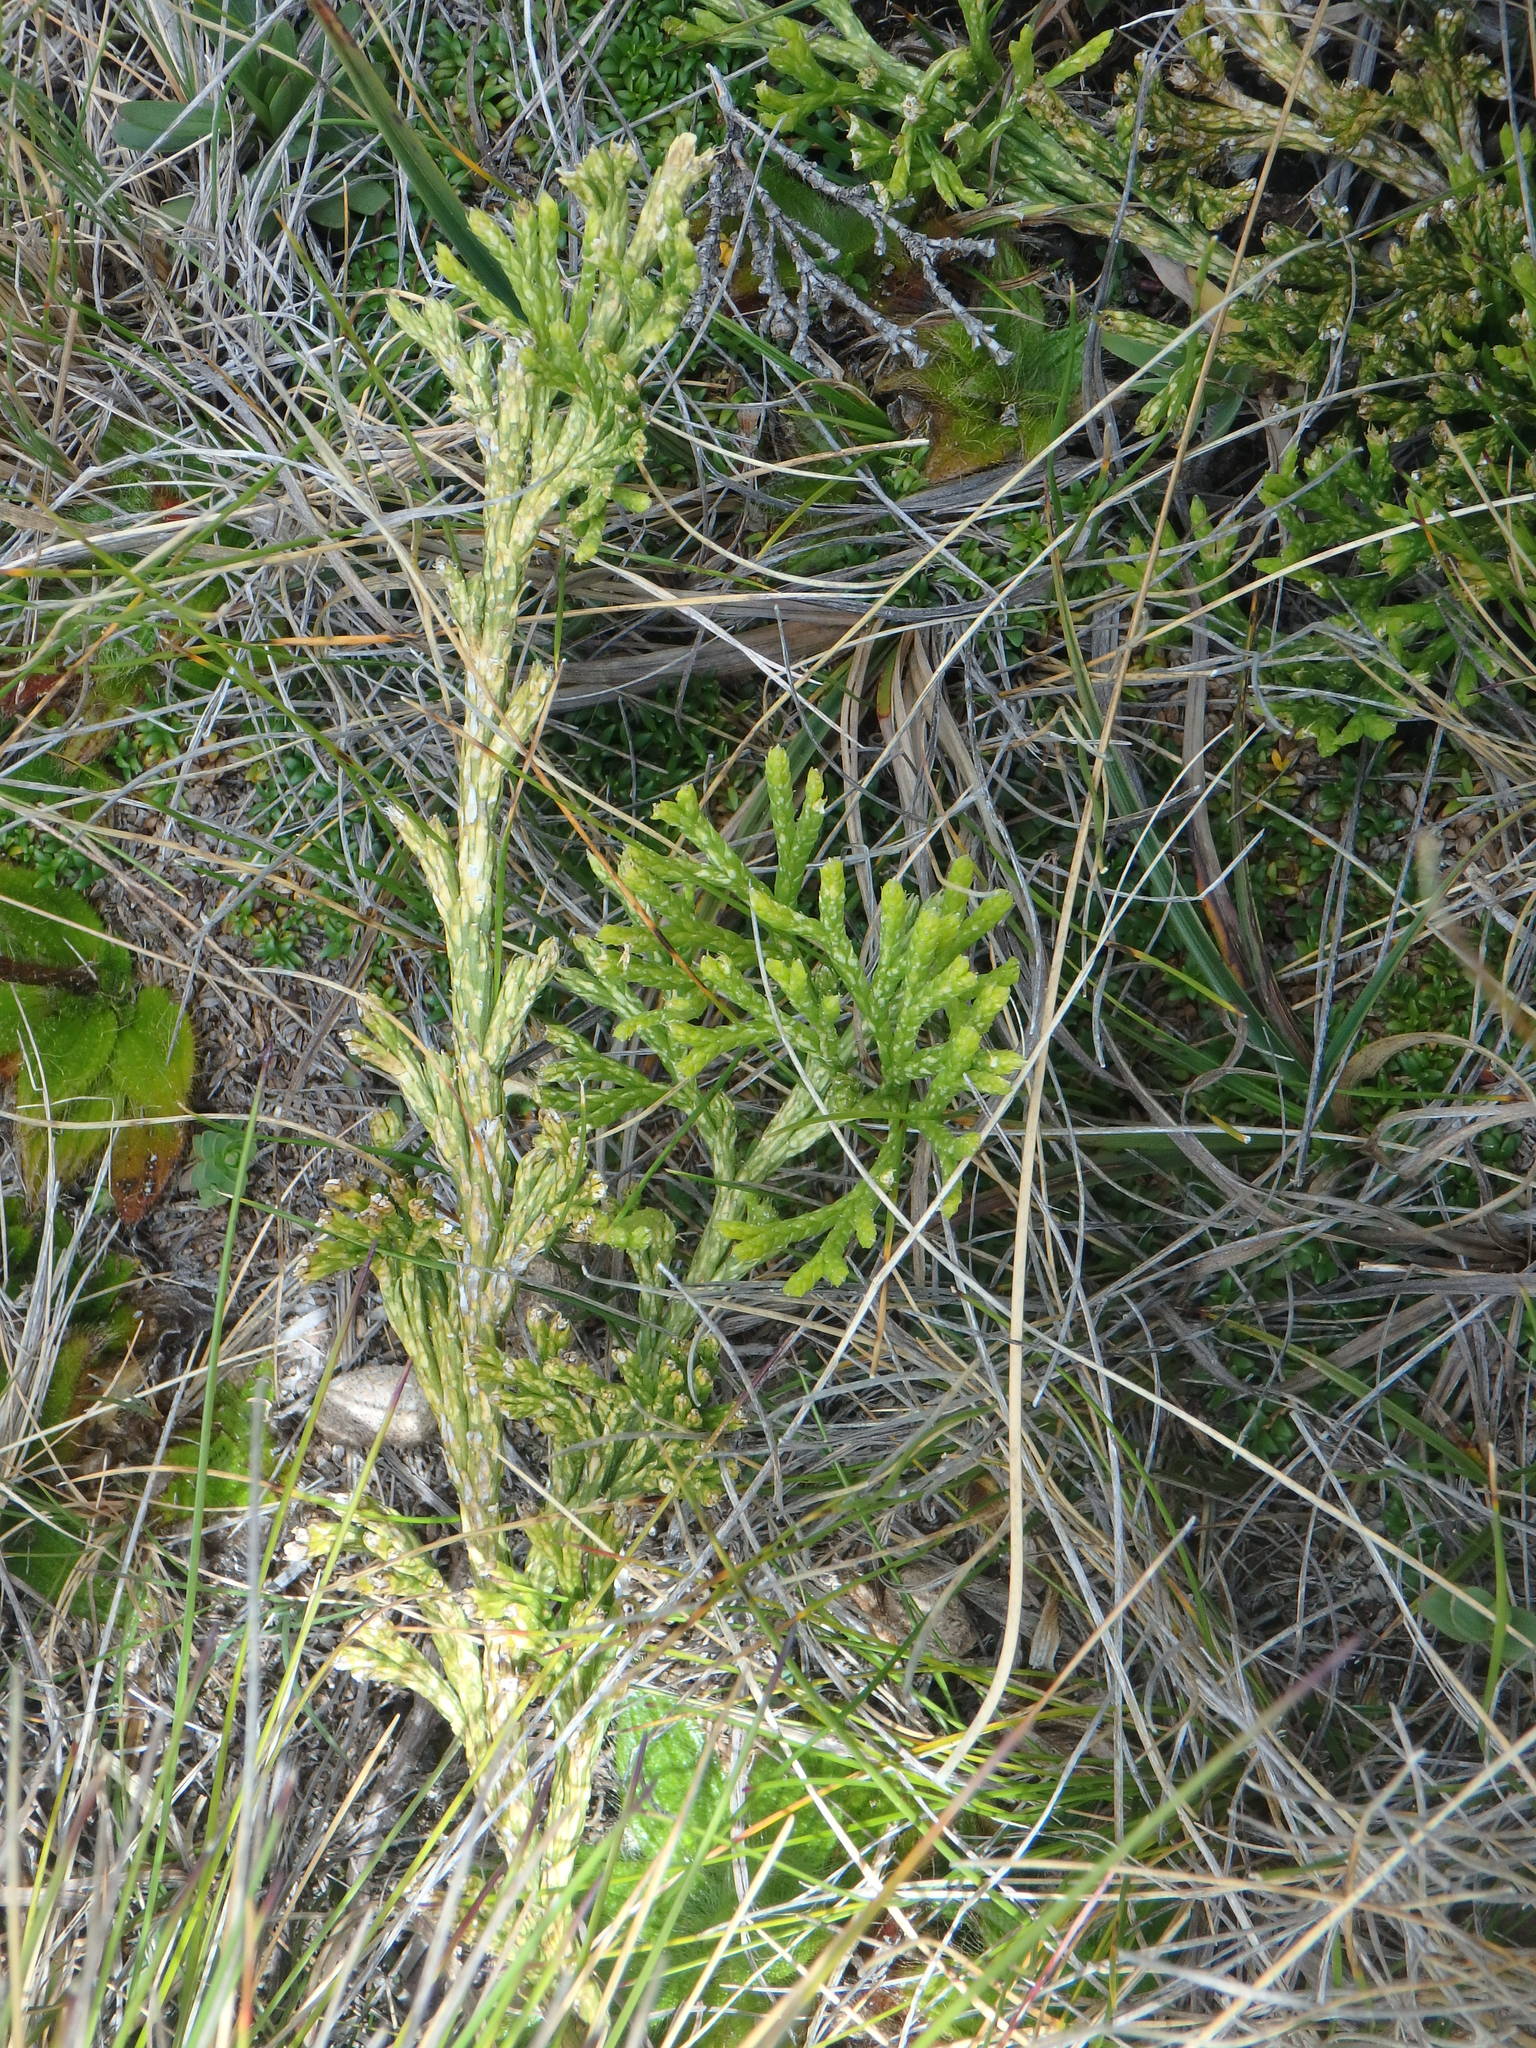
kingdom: Plantae
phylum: Tracheophyta
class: Lycopodiopsida
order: Lycopodiales
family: Lycopodiaceae
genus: Diphasiastrum
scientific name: Diphasiastrum thyoides
